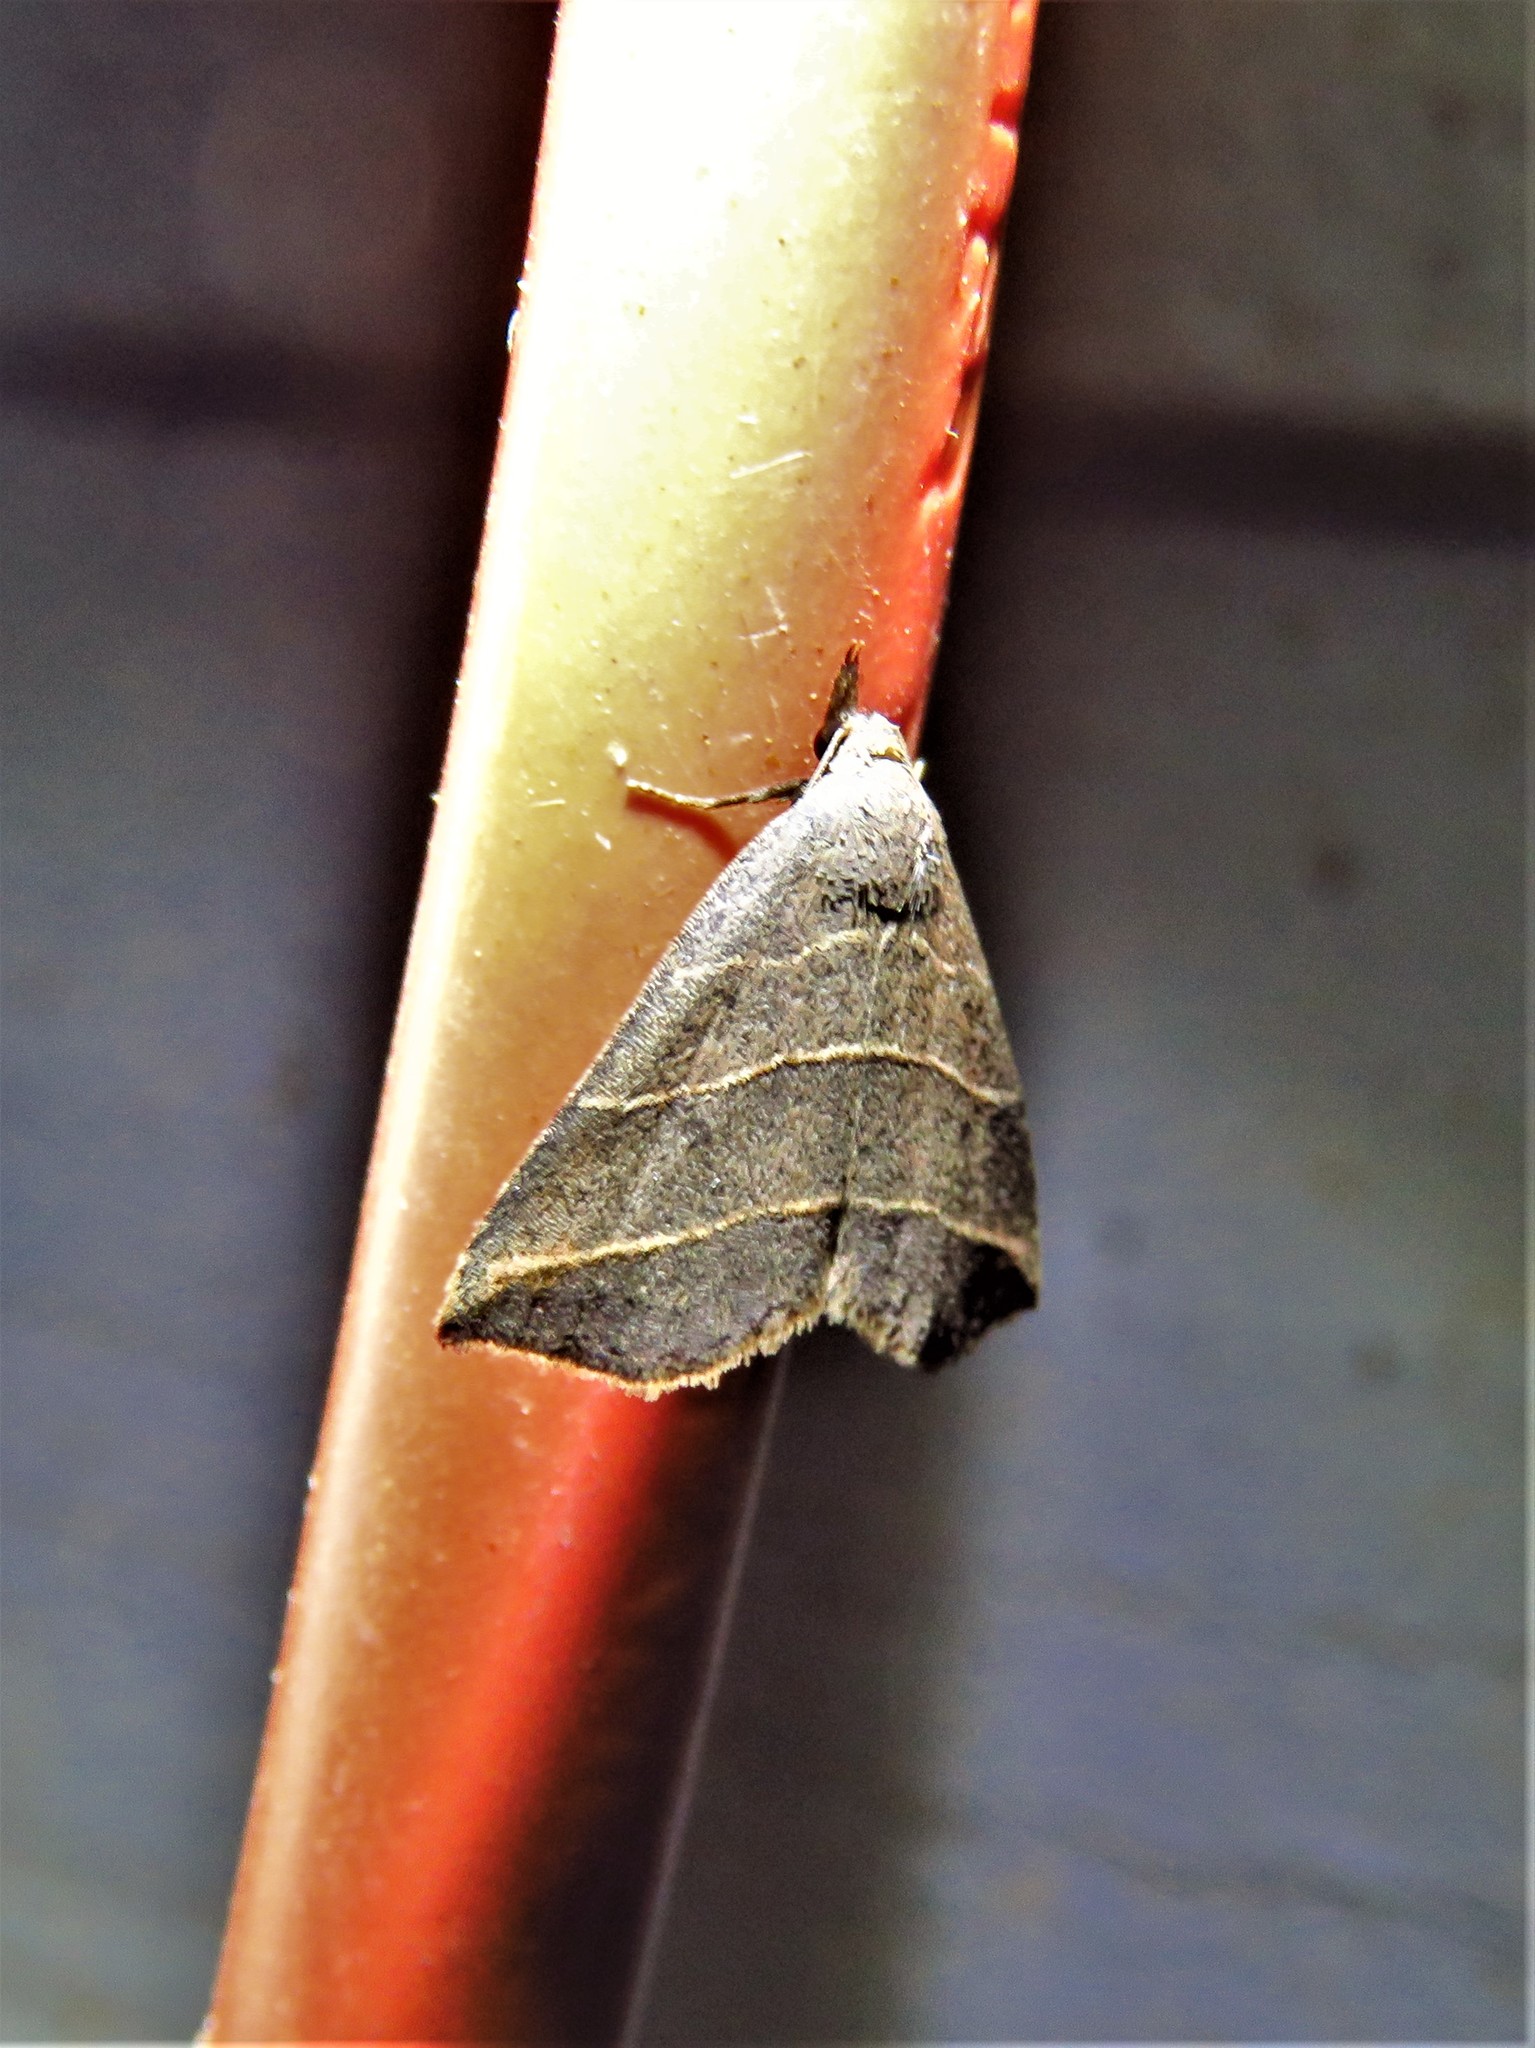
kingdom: Animalia
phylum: Arthropoda
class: Insecta
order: Lepidoptera
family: Erebidae
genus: Colobochyla
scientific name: Colobochyla interpuncta
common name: Yellow-lined owlet
